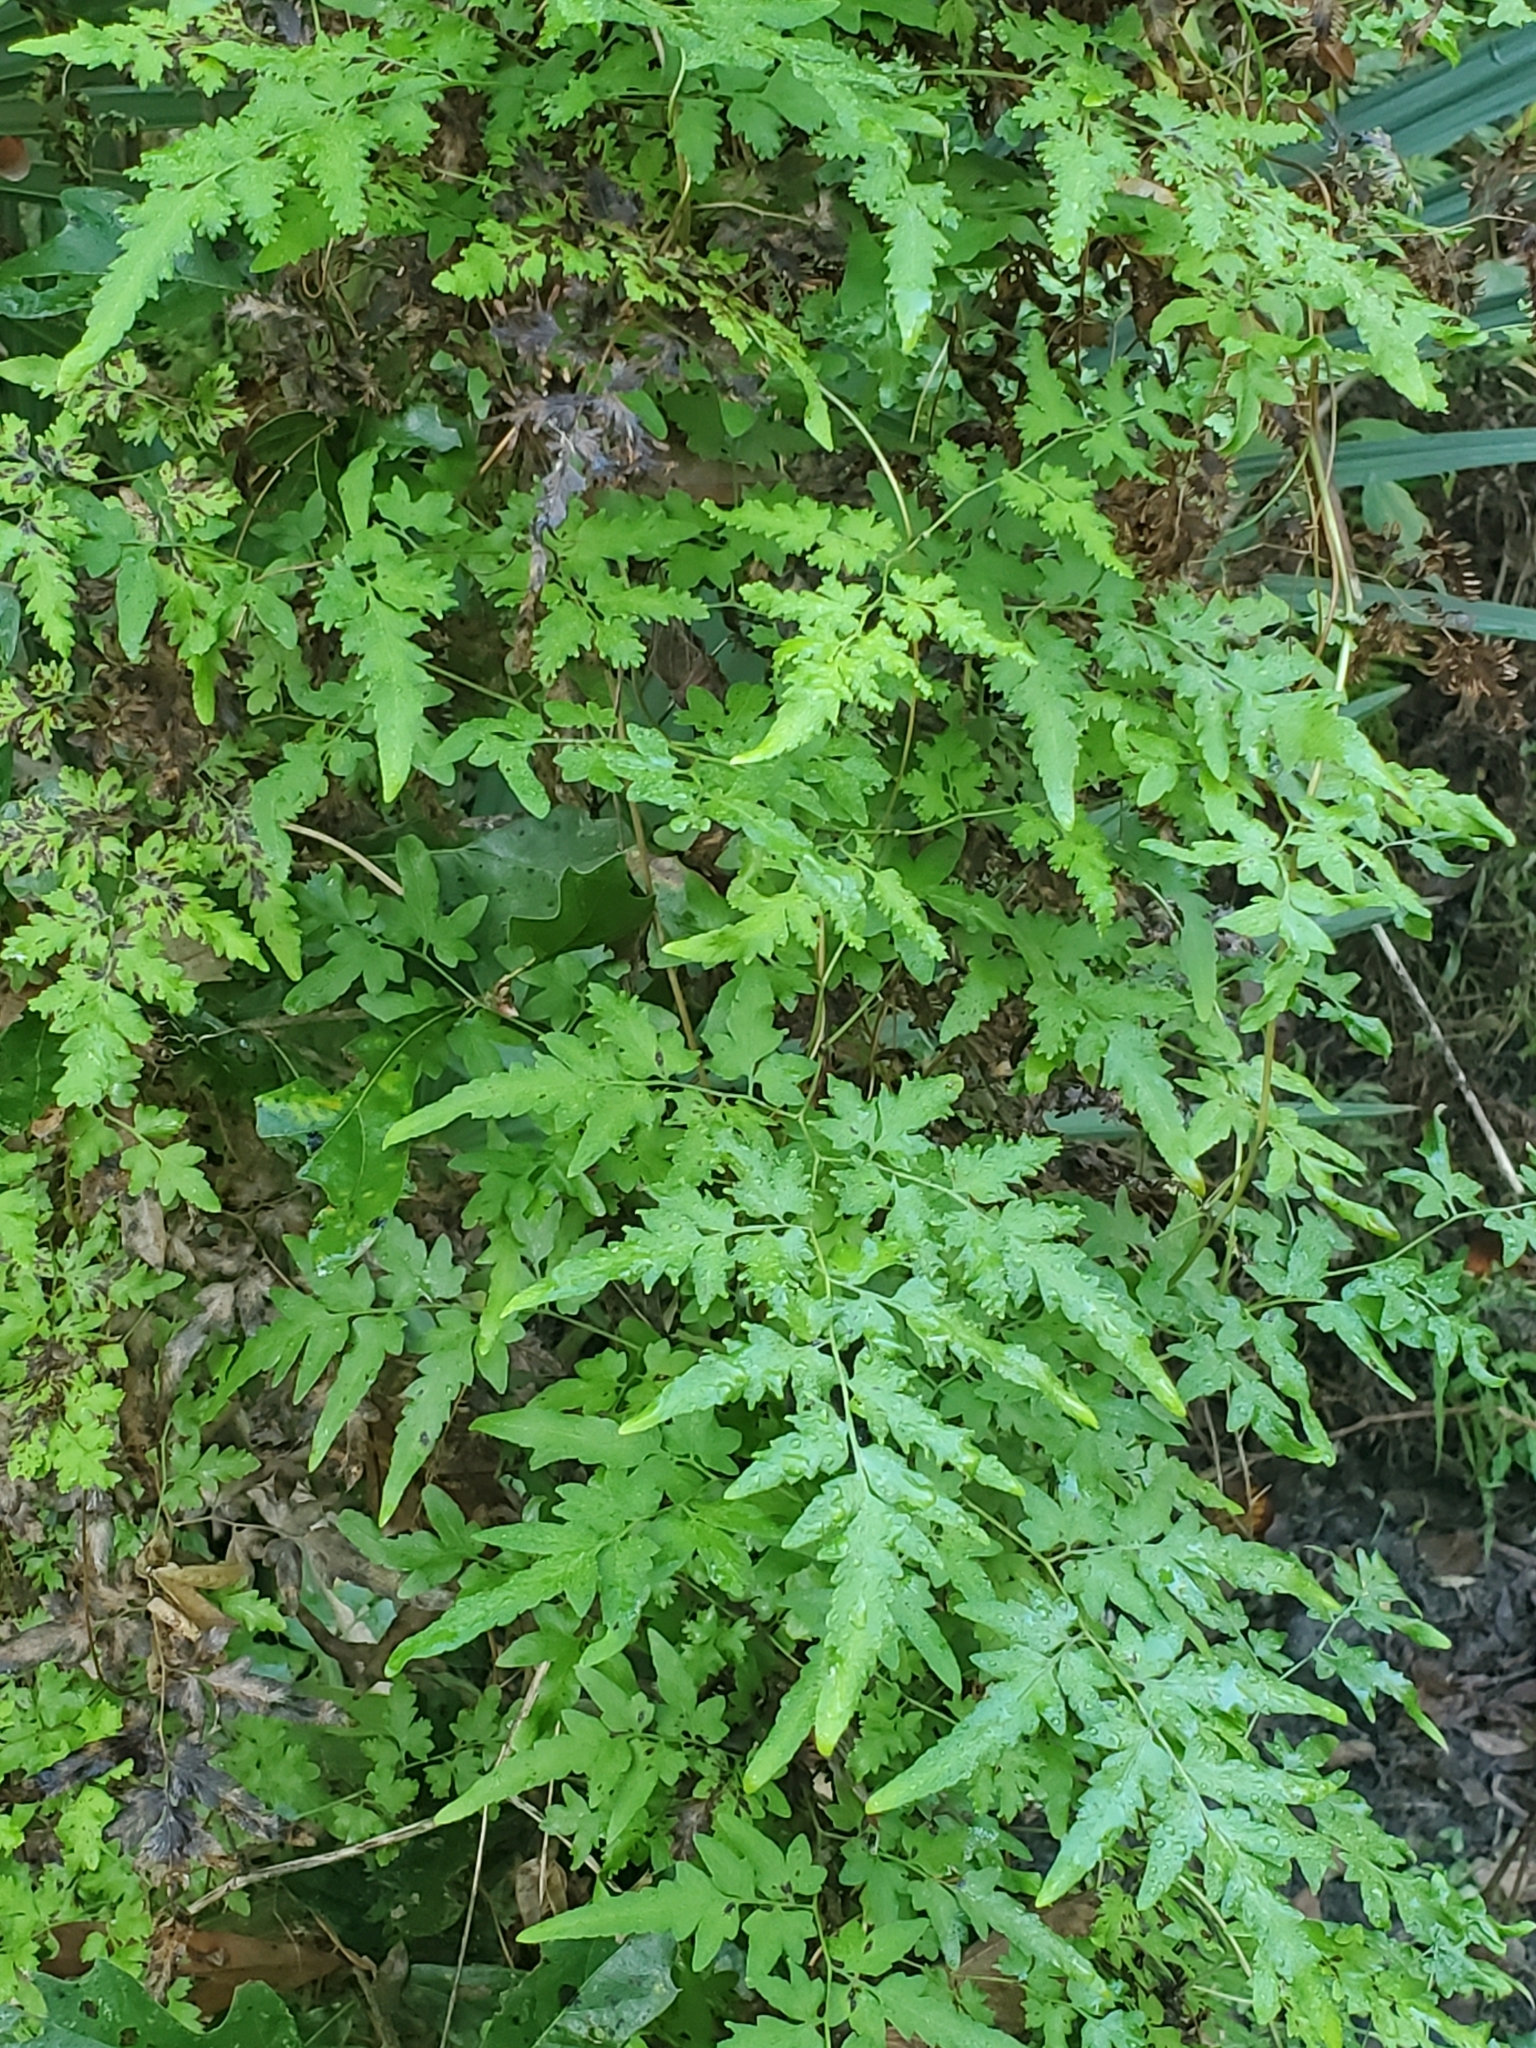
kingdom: Plantae
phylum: Tracheophyta
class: Polypodiopsida
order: Schizaeales
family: Lygodiaceae
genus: Lygodium
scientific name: Lygodium japonicum
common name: Japanese climbing fern
